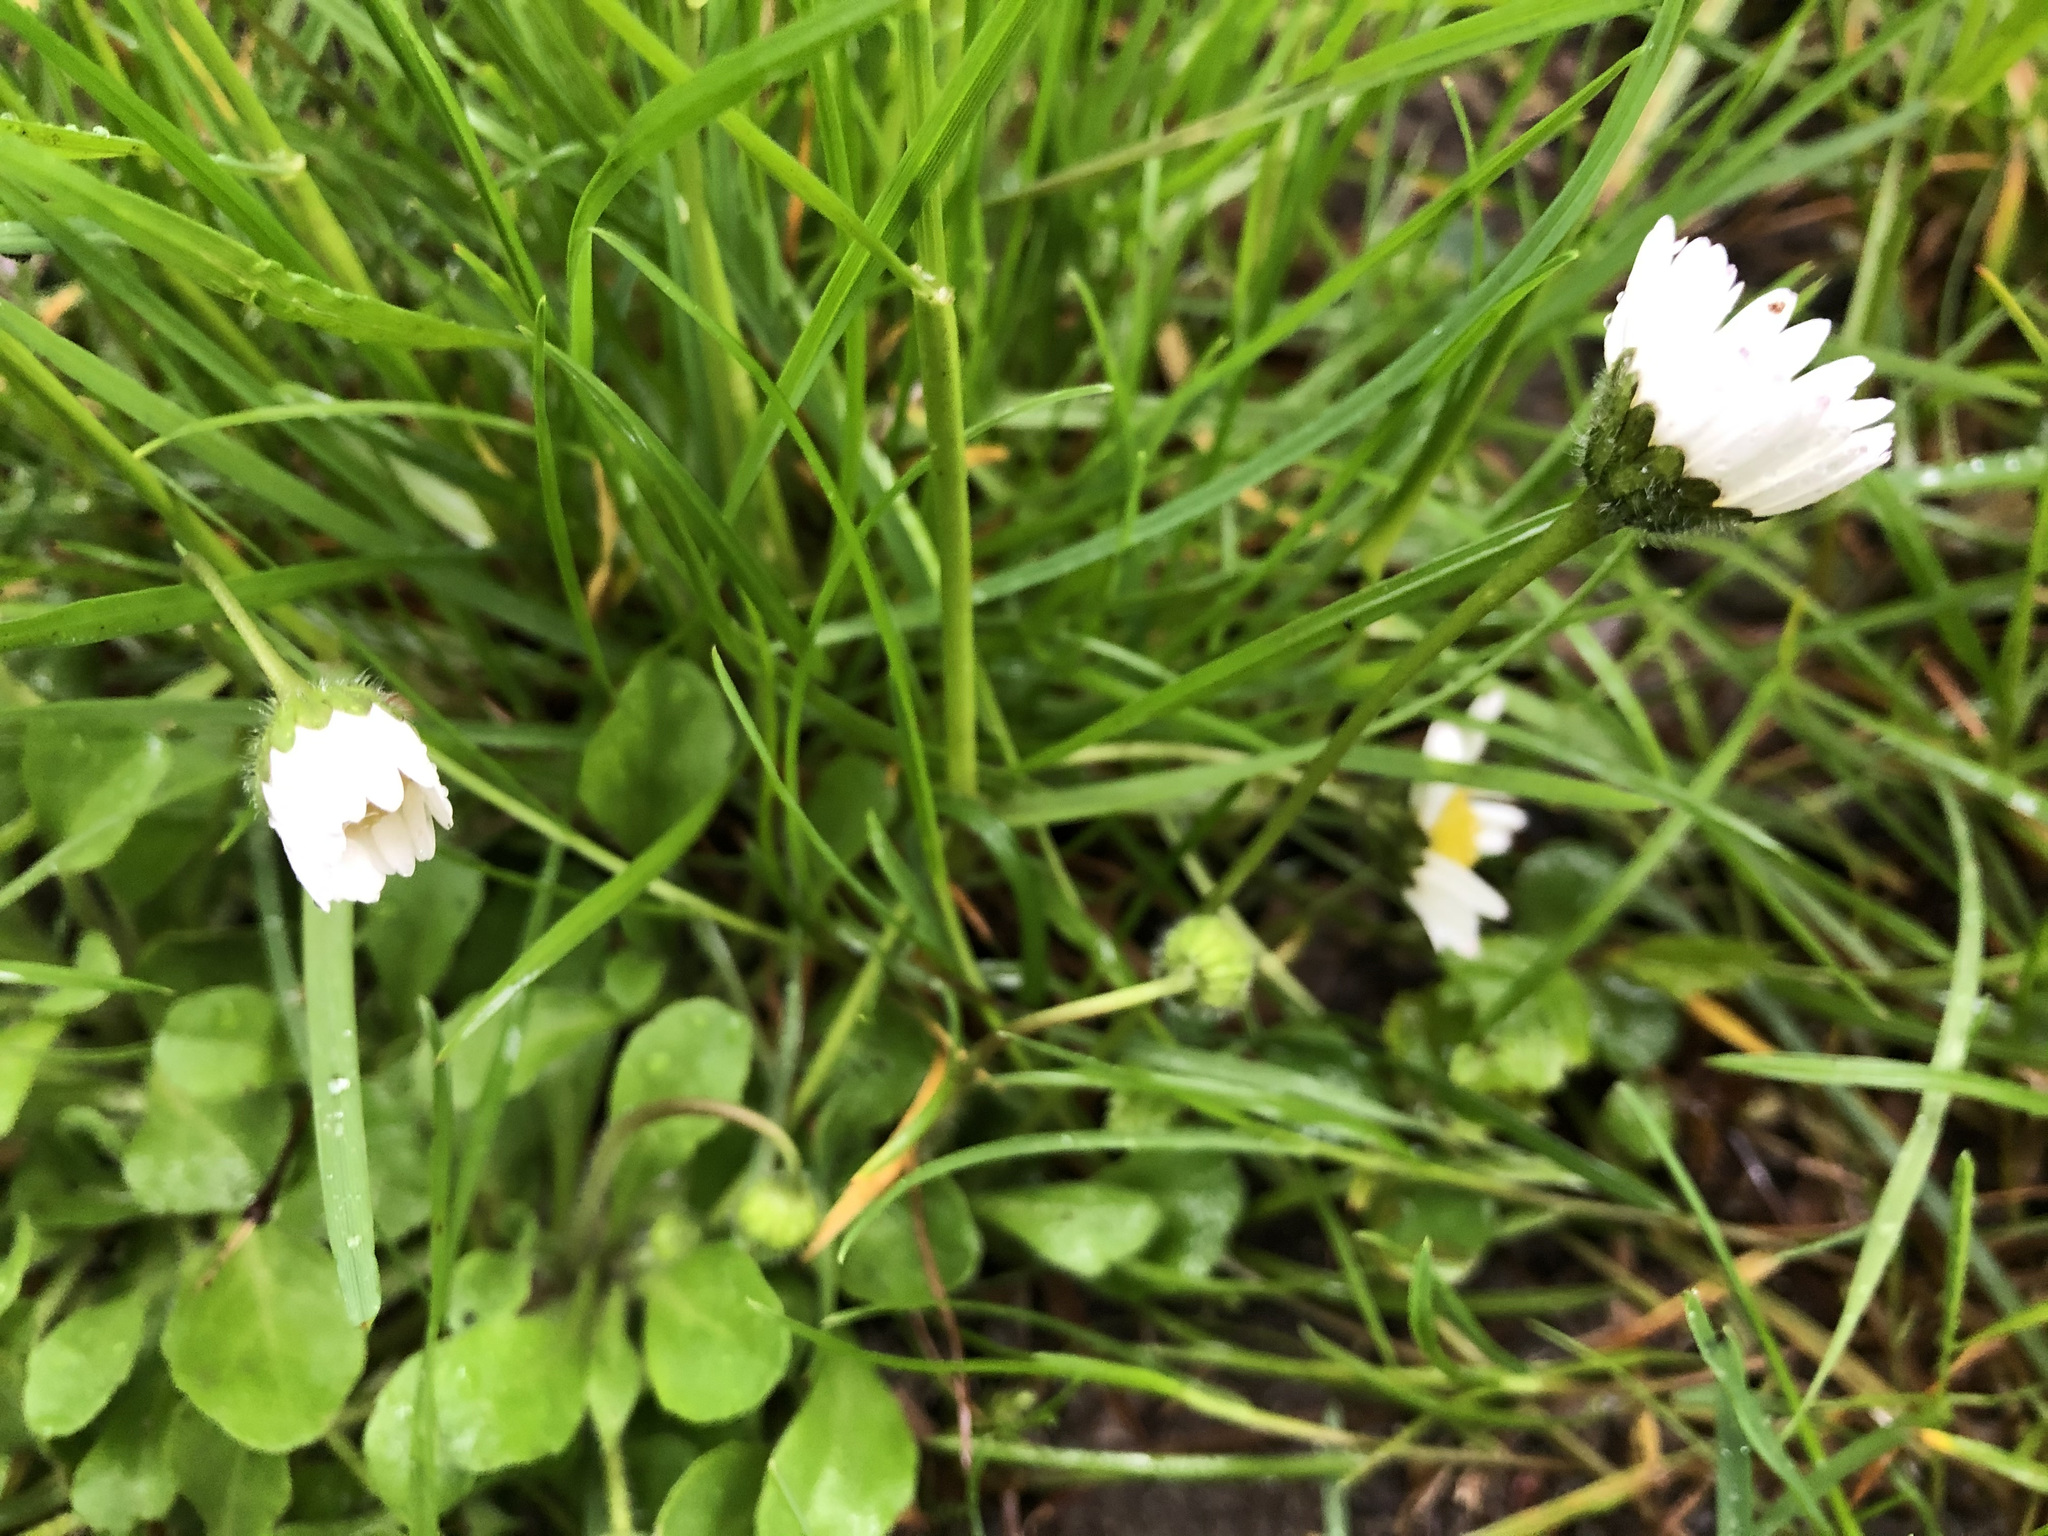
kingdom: Plantae
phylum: Tracheophyta
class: Magnoliopsida
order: Asterales
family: Asteraceae
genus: Bellis
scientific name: Bellis perennis
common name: Lawndaisy
